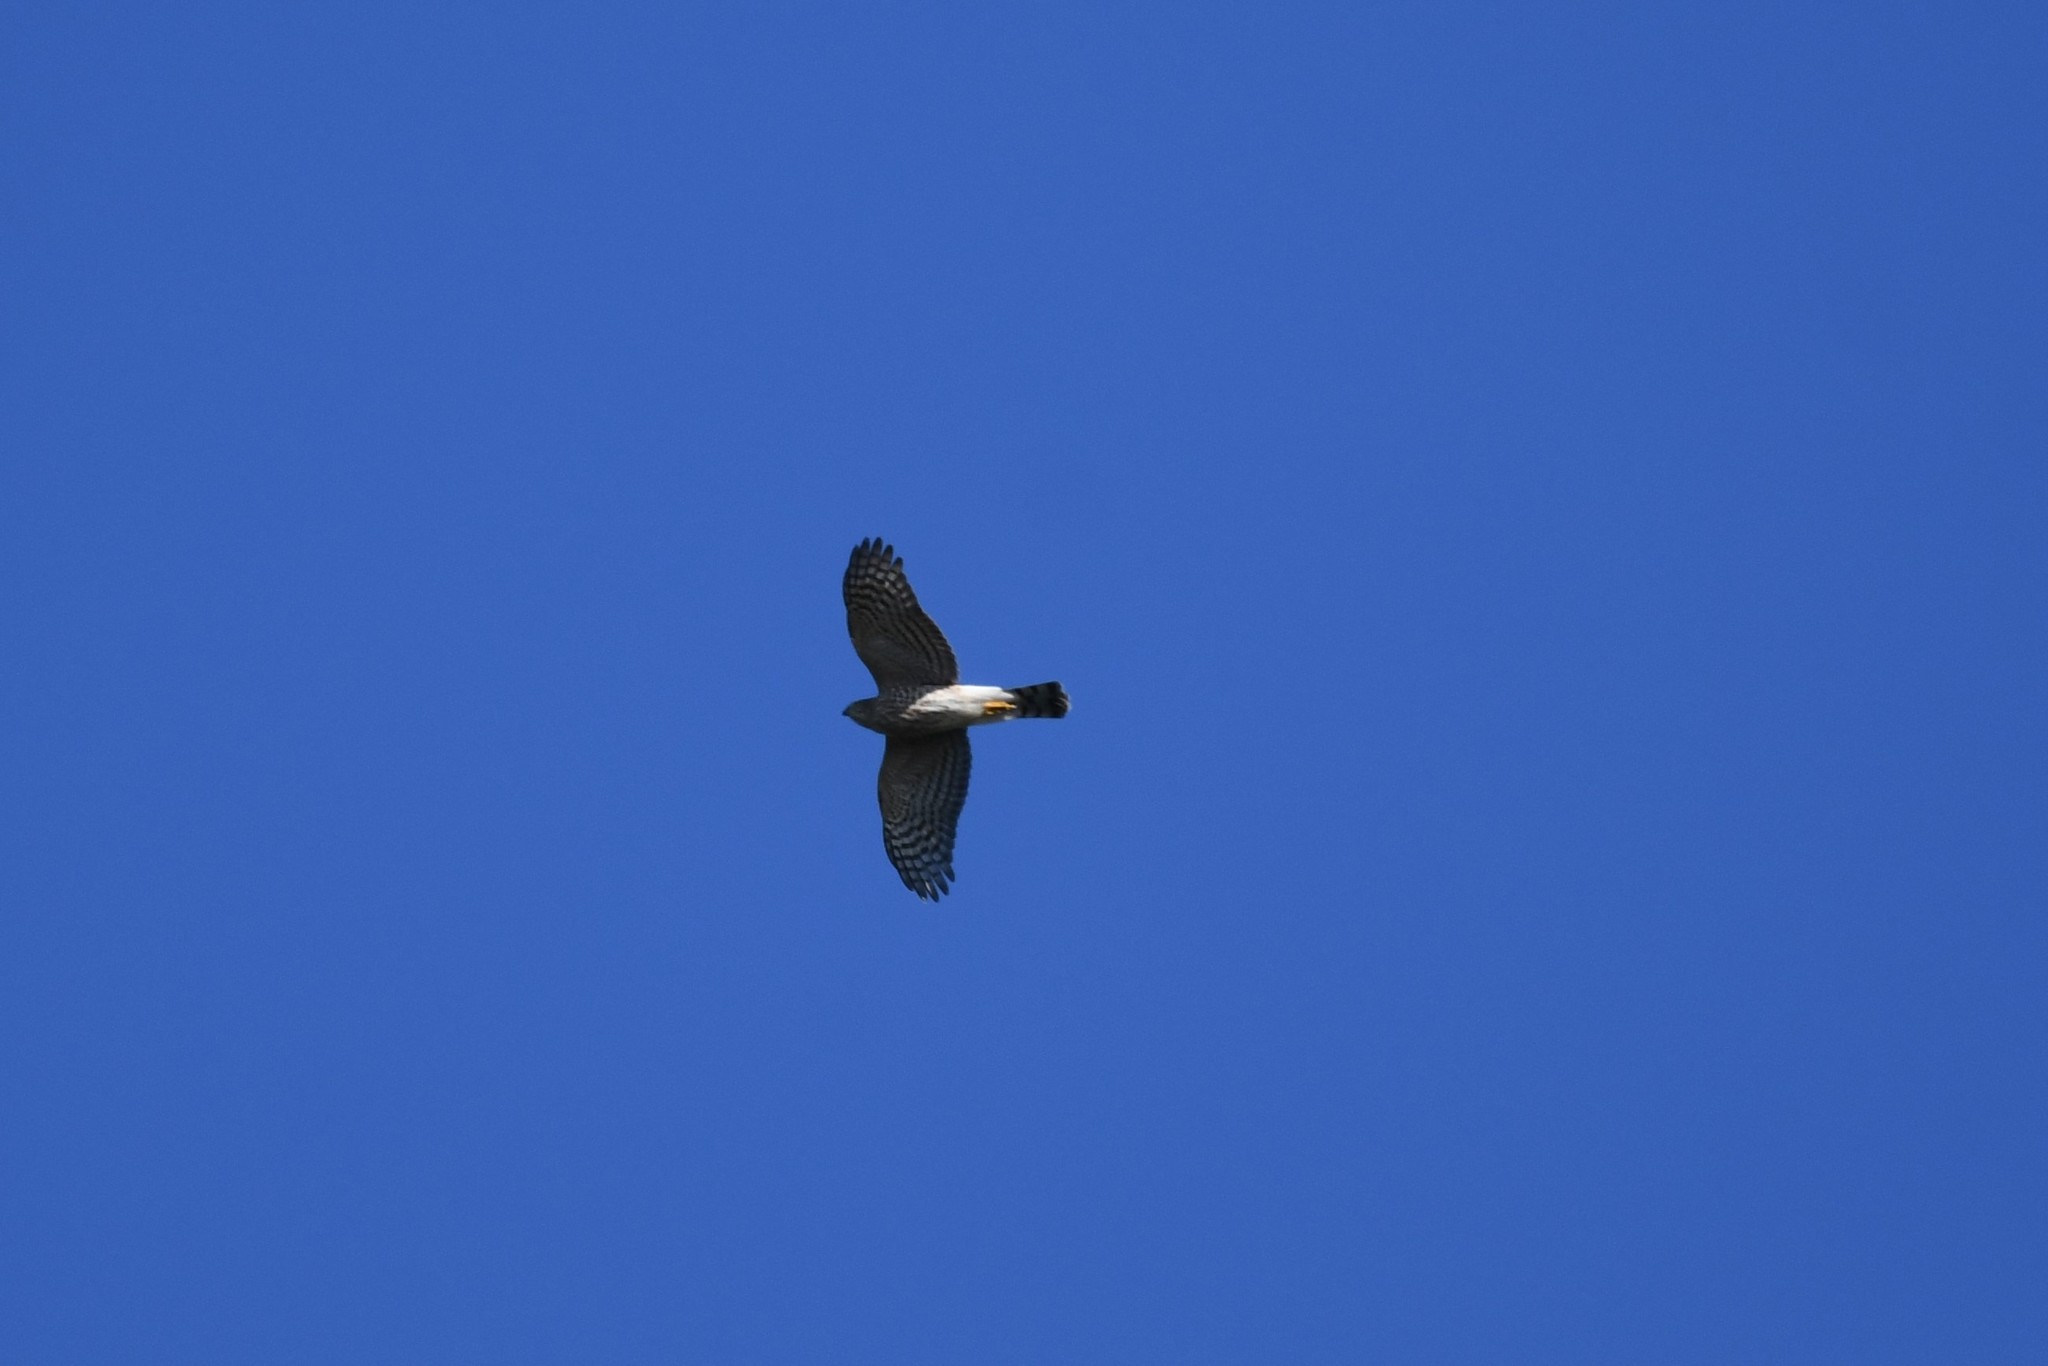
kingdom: Animalia
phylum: Chordata
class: Aves
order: Accipitriformes
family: Accipitridae
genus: Accipiter
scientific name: Accipiter striatus
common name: Sharp-shinned hawk
